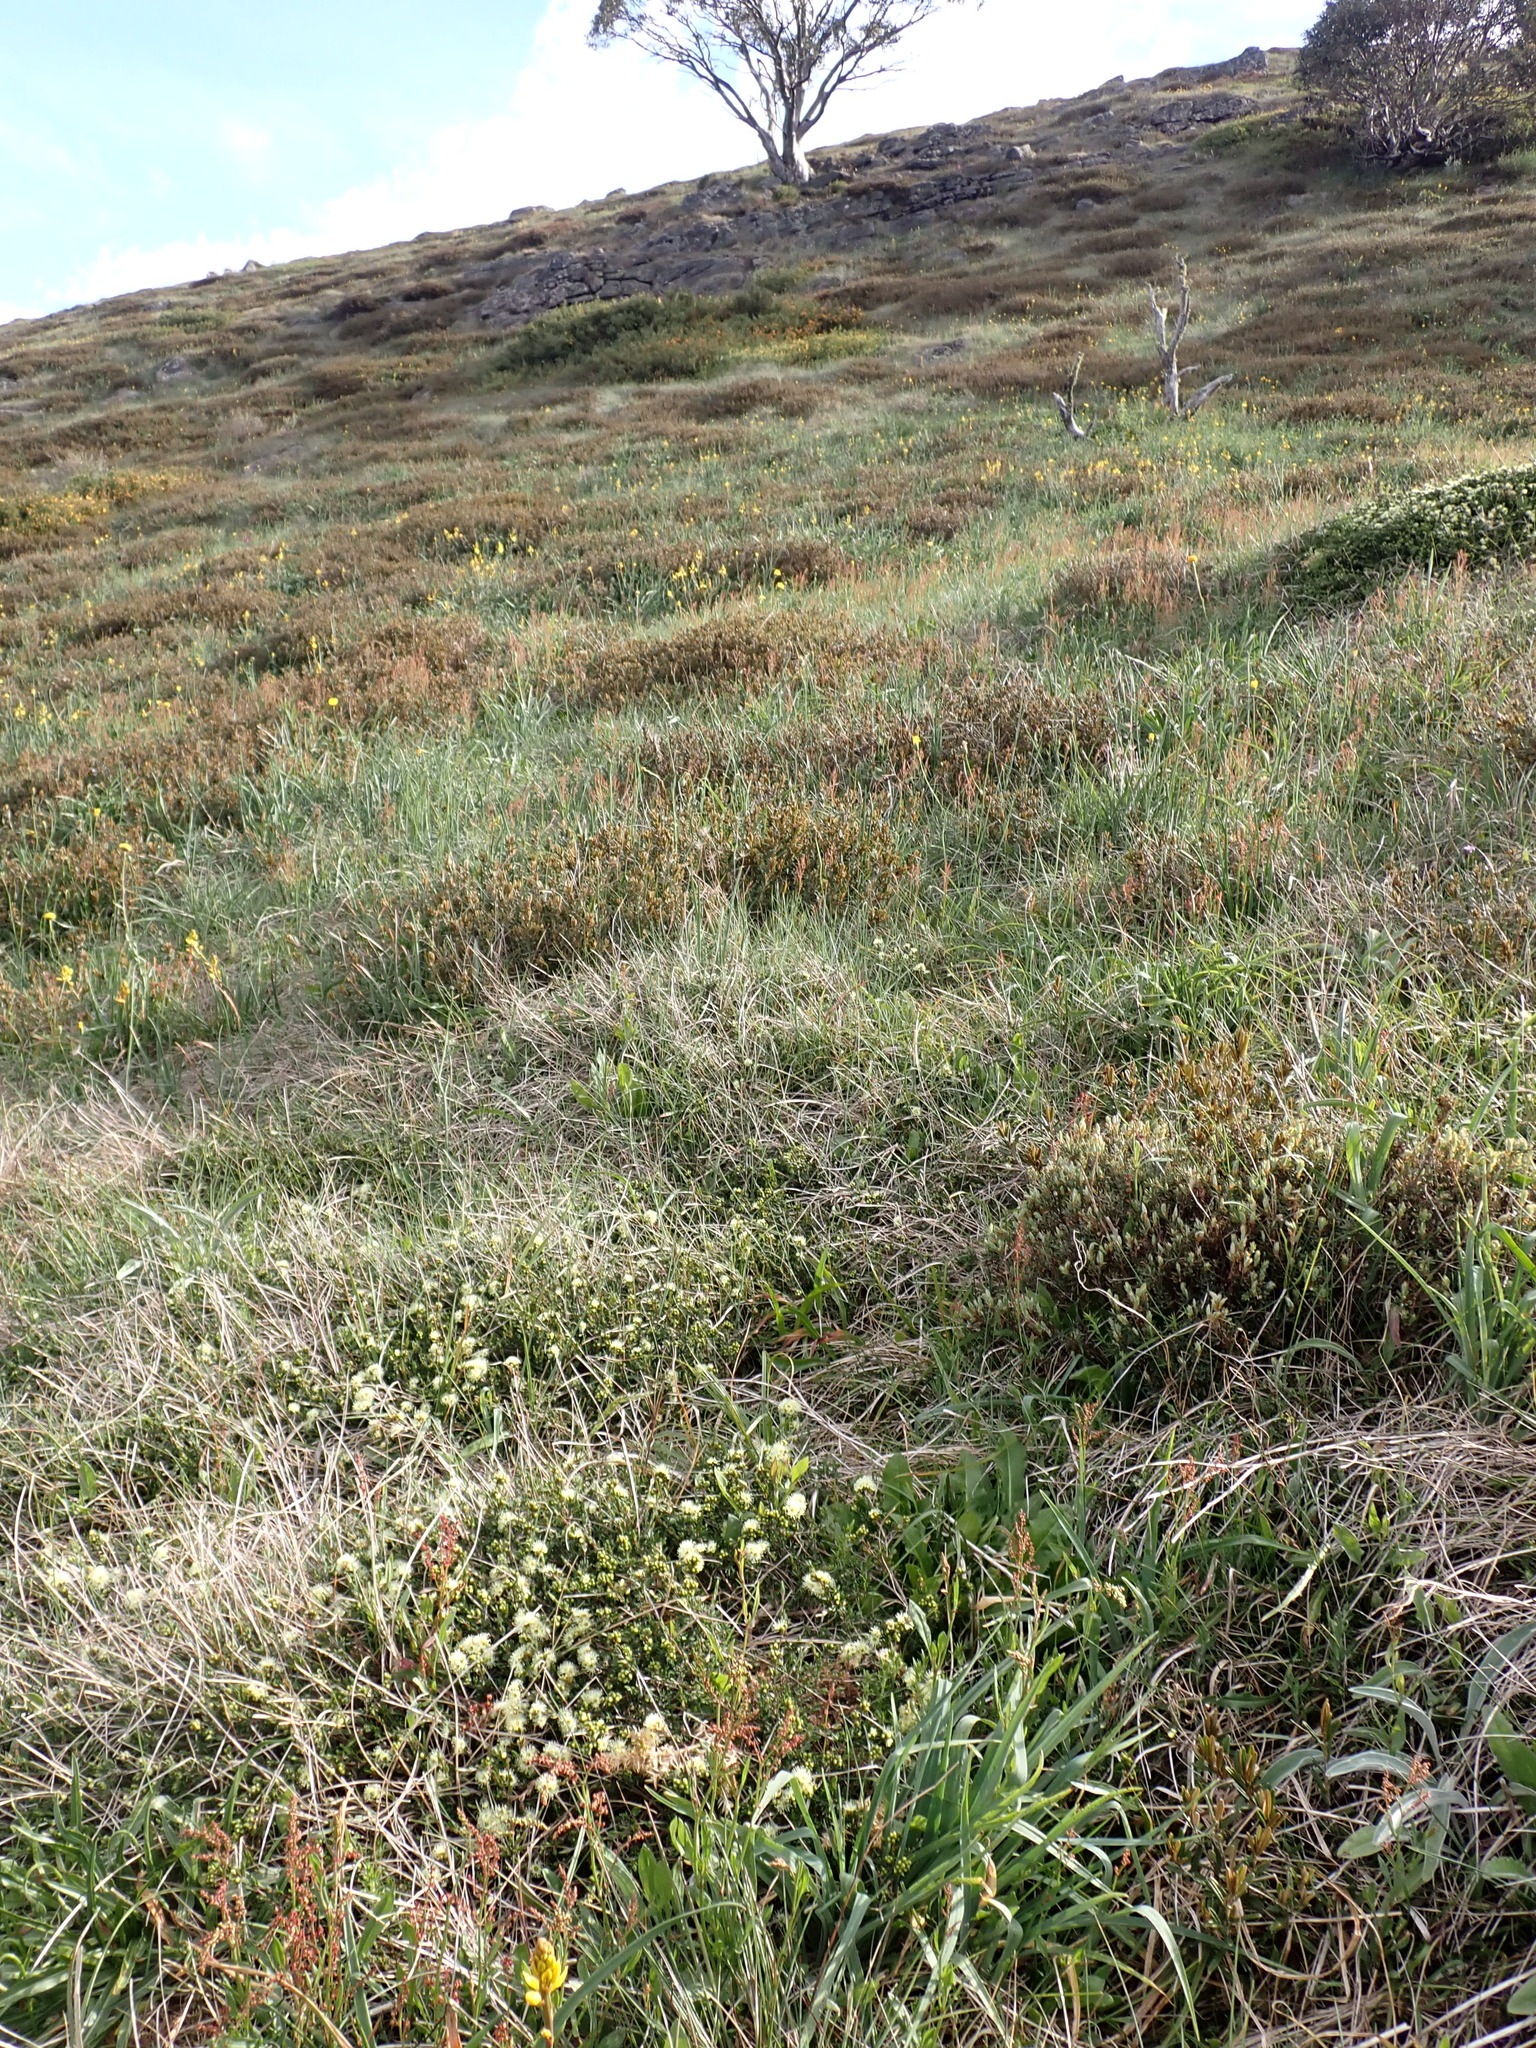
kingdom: Plantae
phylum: Tracheophyta
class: Magnoliopsida
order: Myrtales
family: Myrtaceae
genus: Kunzea
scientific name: Kunzea muelleri
